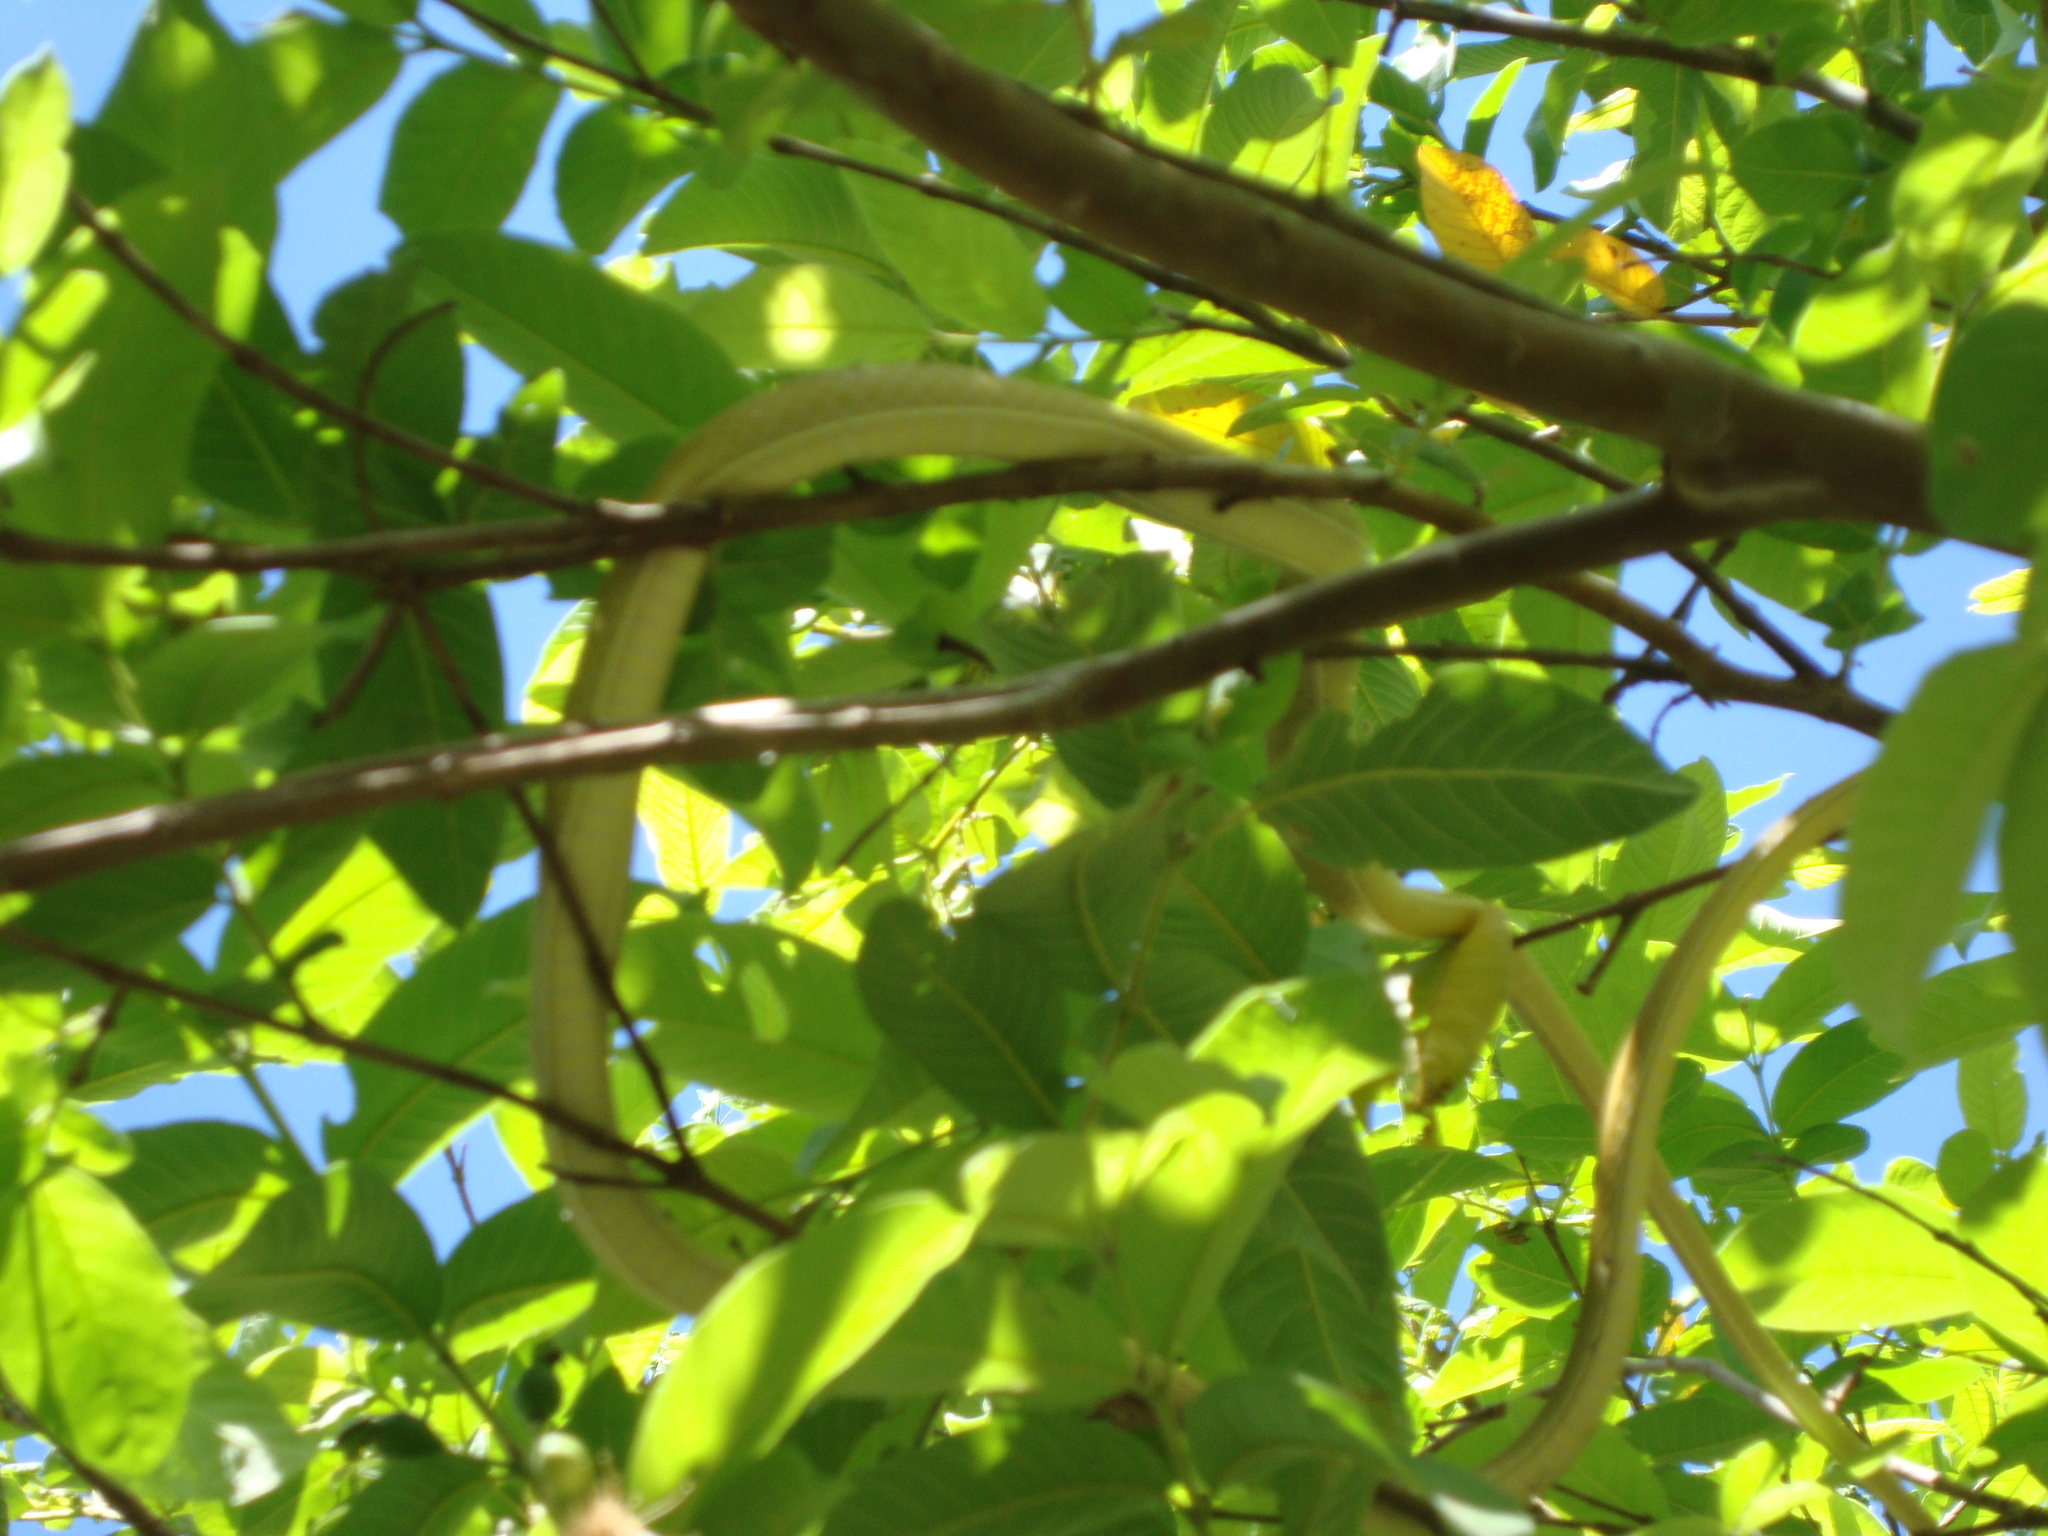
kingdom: Animalia
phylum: Chordata
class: Squamata
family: Colubridae
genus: Oxybelis
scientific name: Oxybelis wilsoni
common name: Roatan vinesnake
